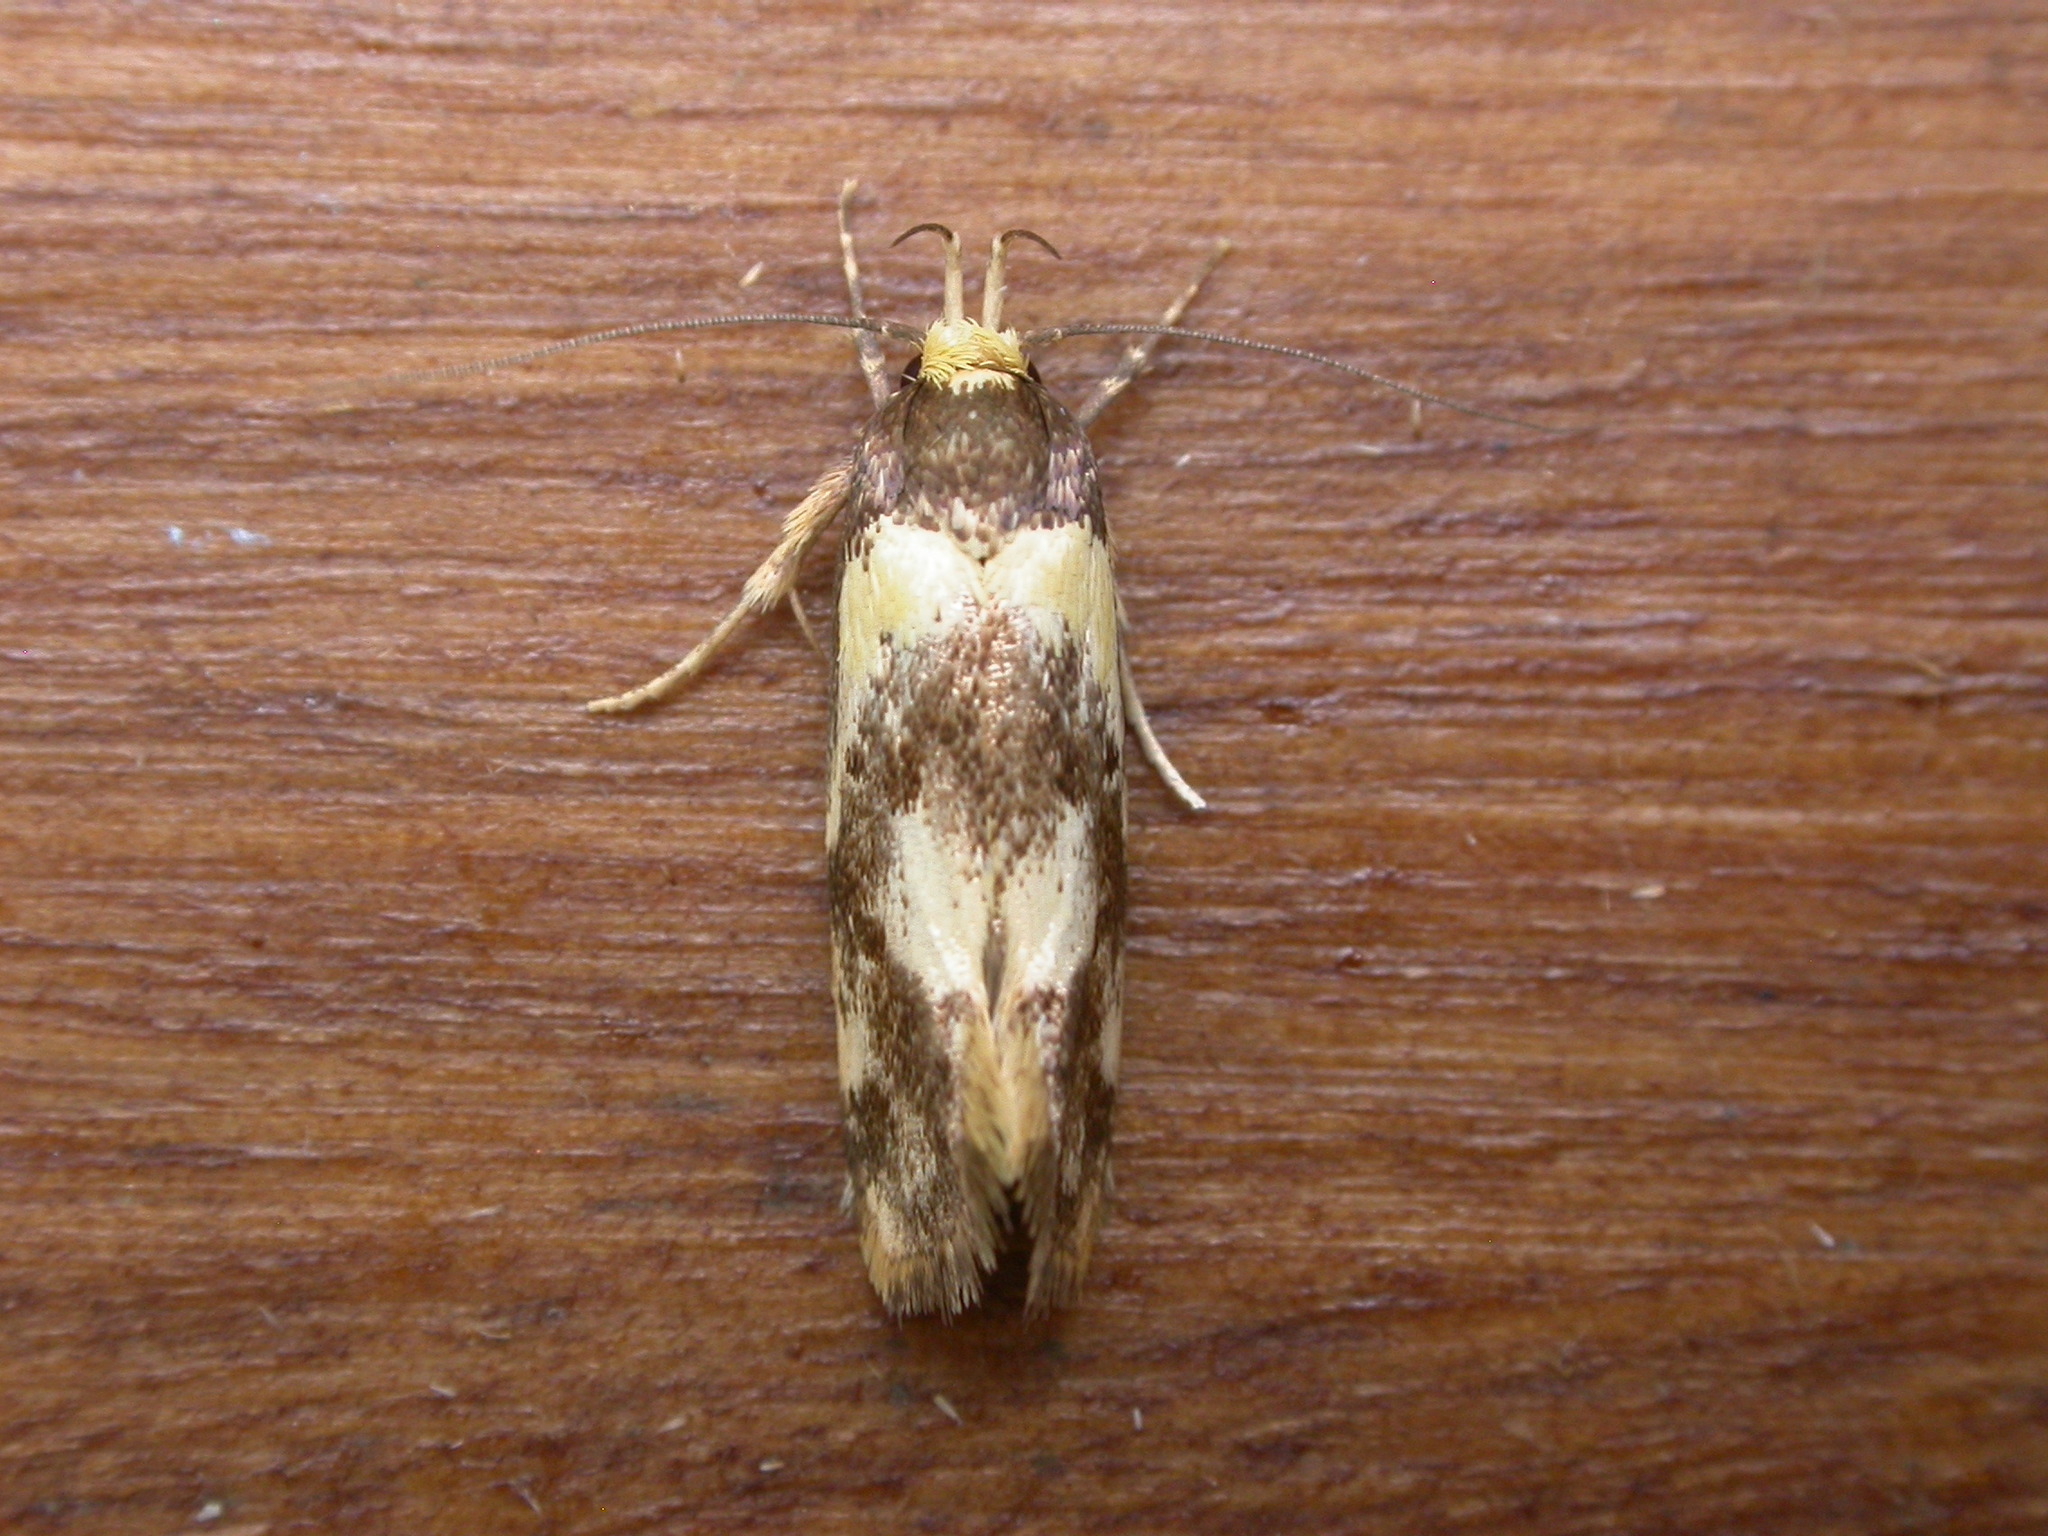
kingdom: Animalia
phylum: Arthropoda
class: Insecta
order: Lepidoptera
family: Oecophoridae
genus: Eulechria
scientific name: Eulechria marmorata
